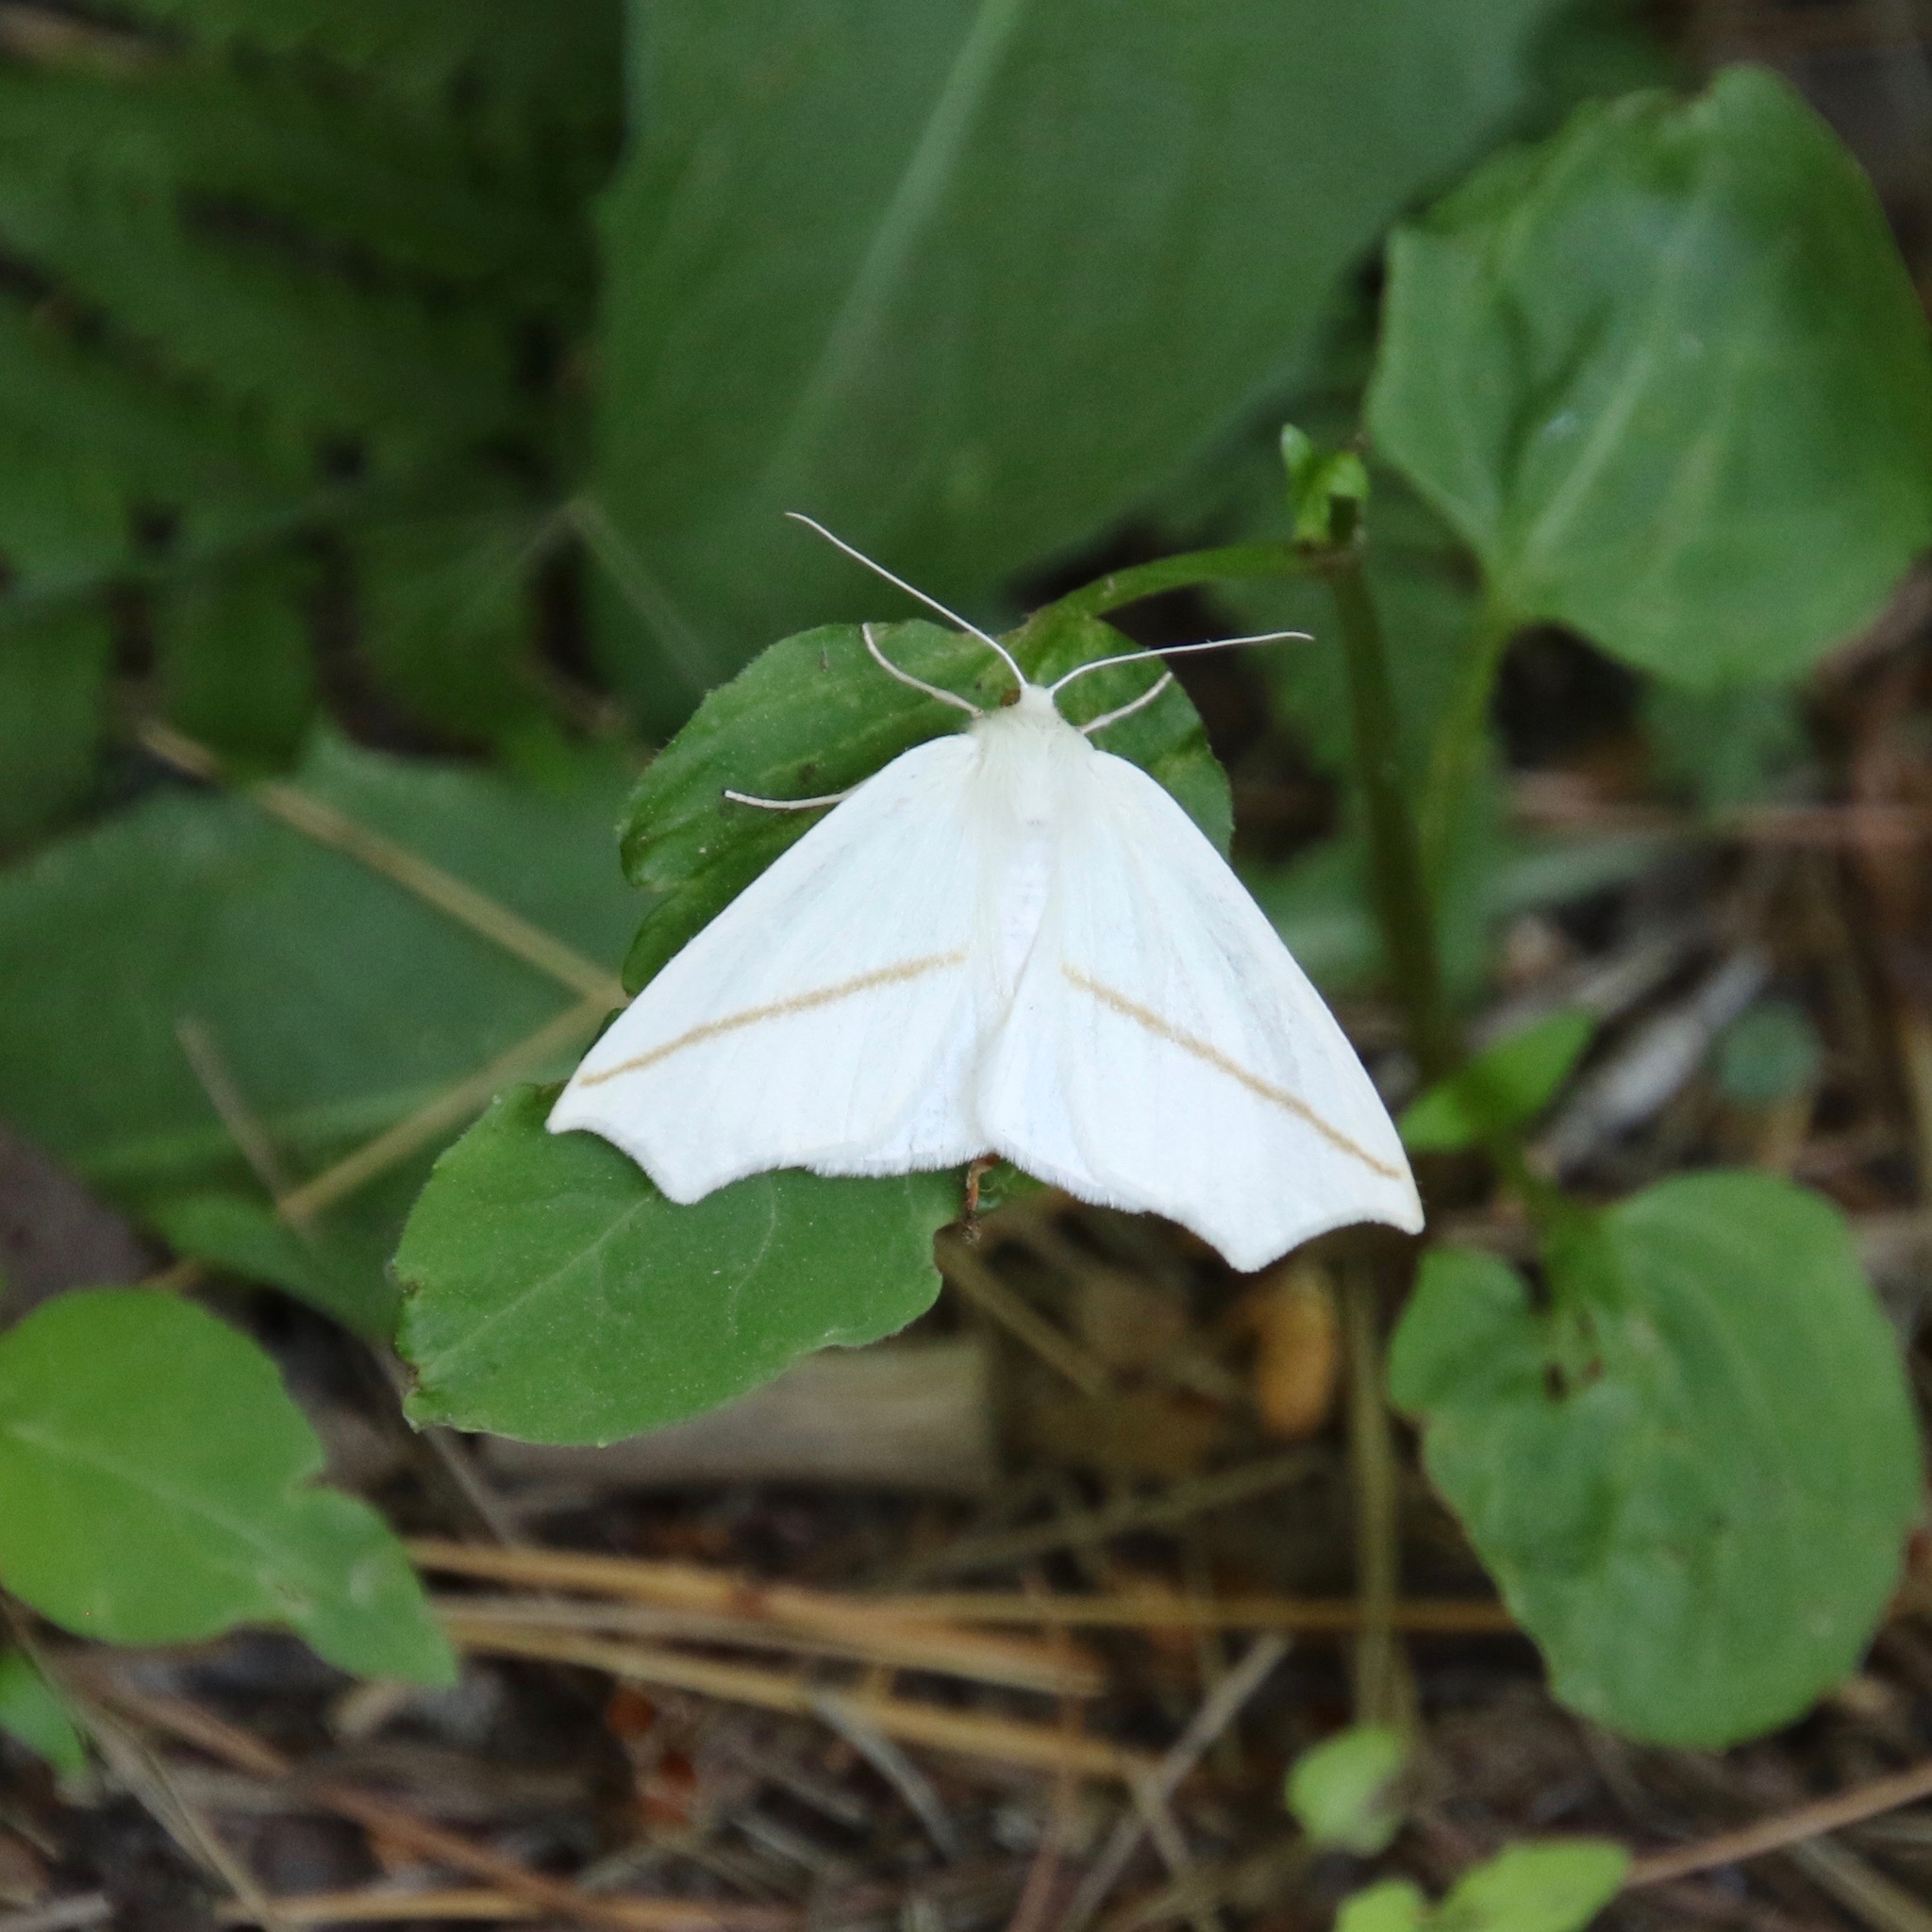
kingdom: Animalia
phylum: Arthropoda
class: Insecta
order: Lepidoptera
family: Geometridae
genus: Tetracis
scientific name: Tetracis cachexiata
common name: White slant-line
